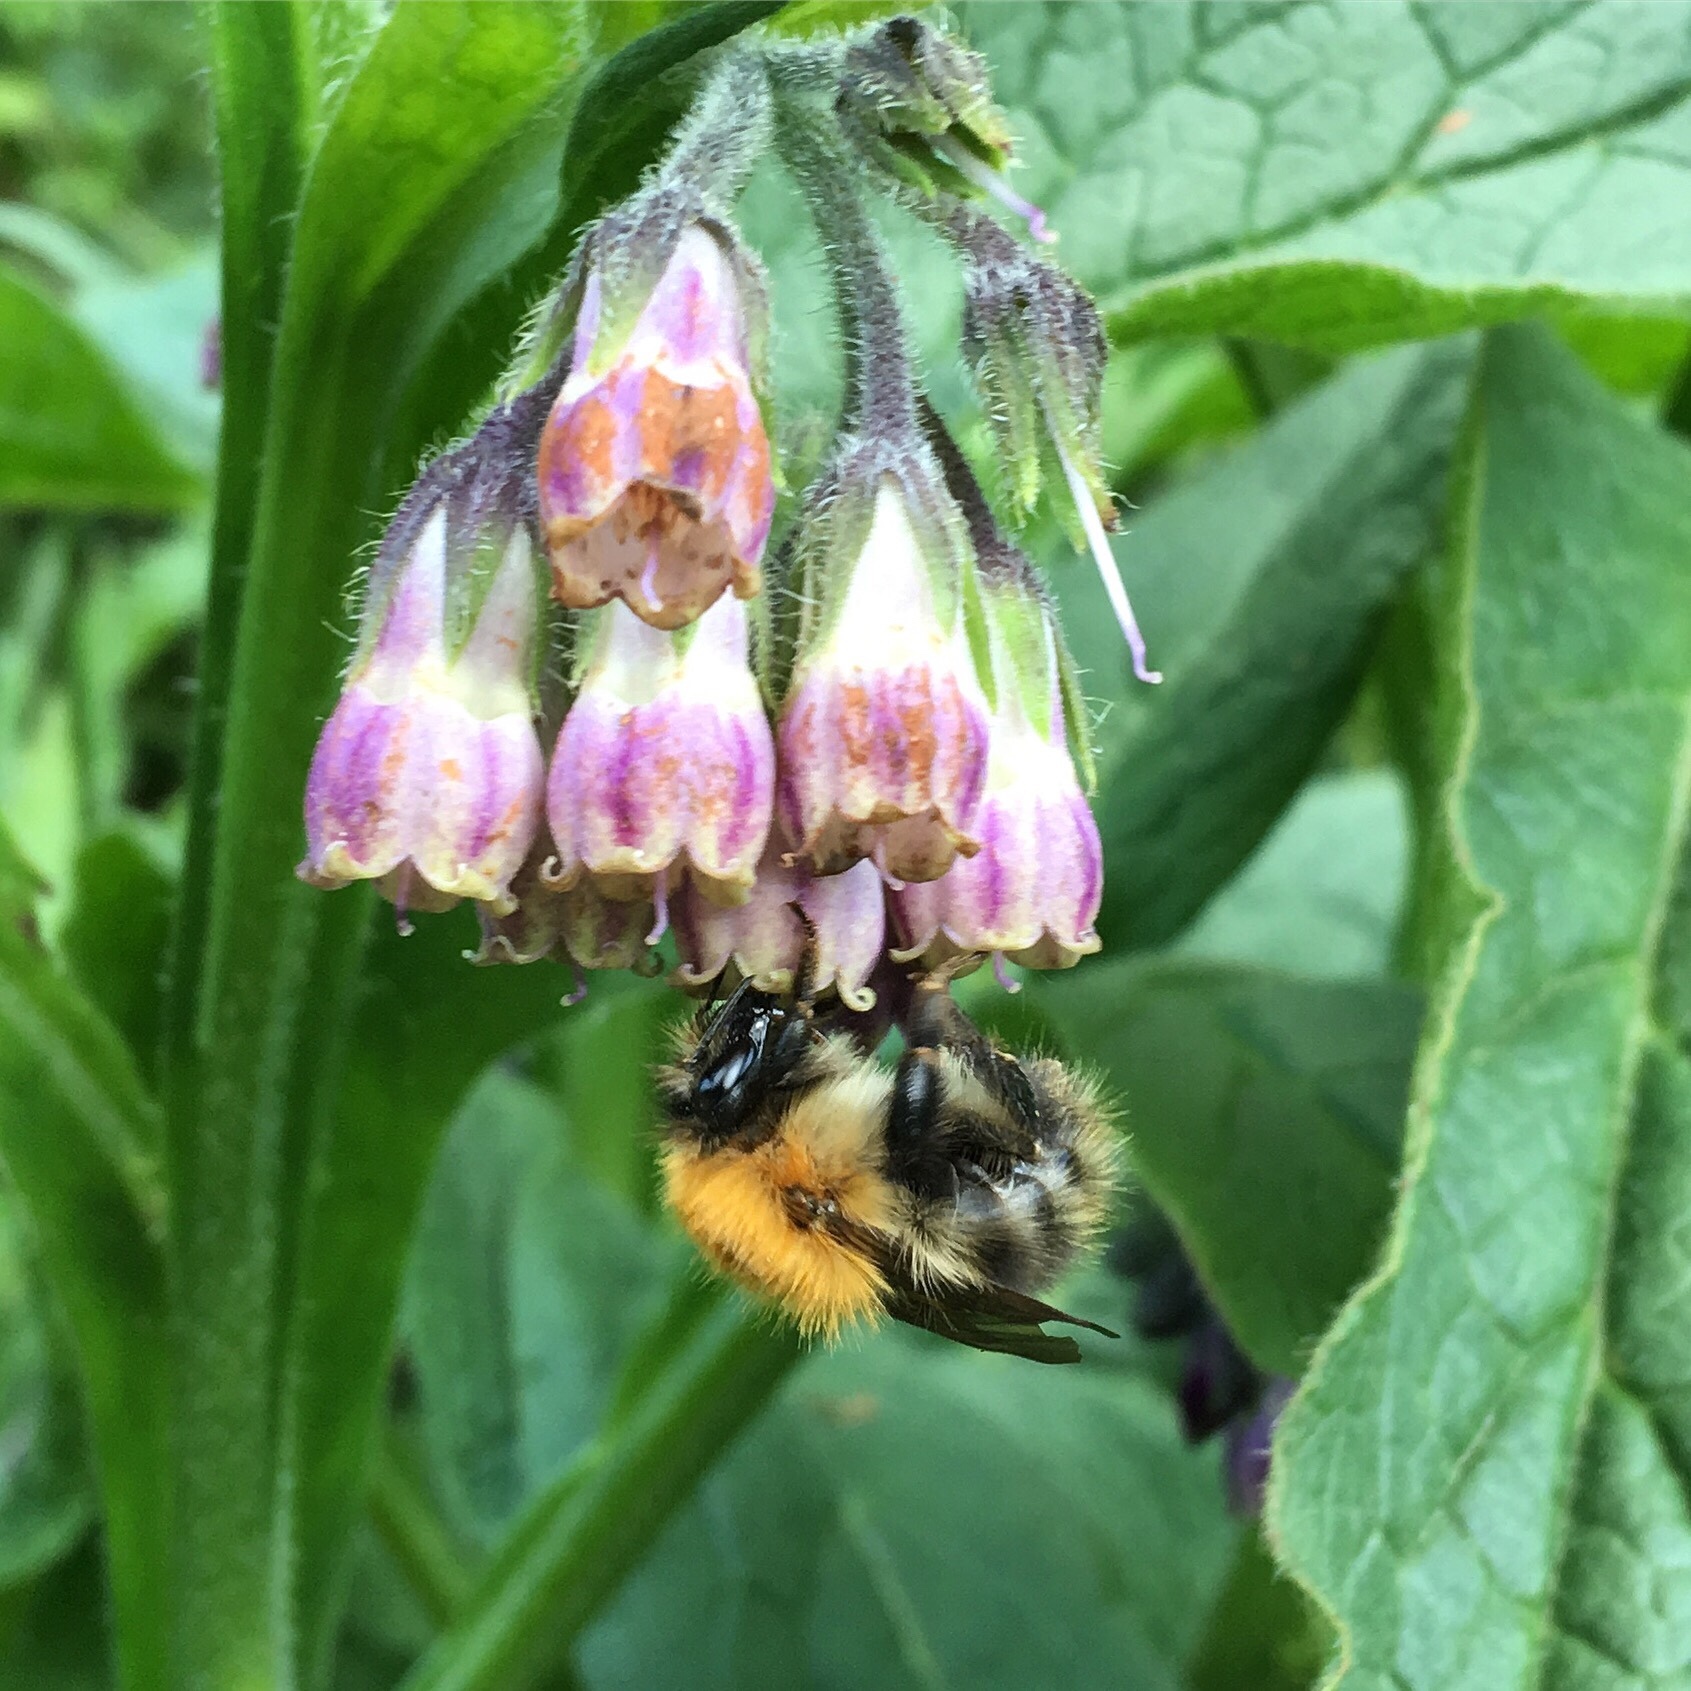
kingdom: Plantae
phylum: Tracheophyta
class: Magnoliopsida
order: Boraginales
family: Boraginaceae
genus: Symphytum
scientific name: Symphytum officinale
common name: Common comfrey
